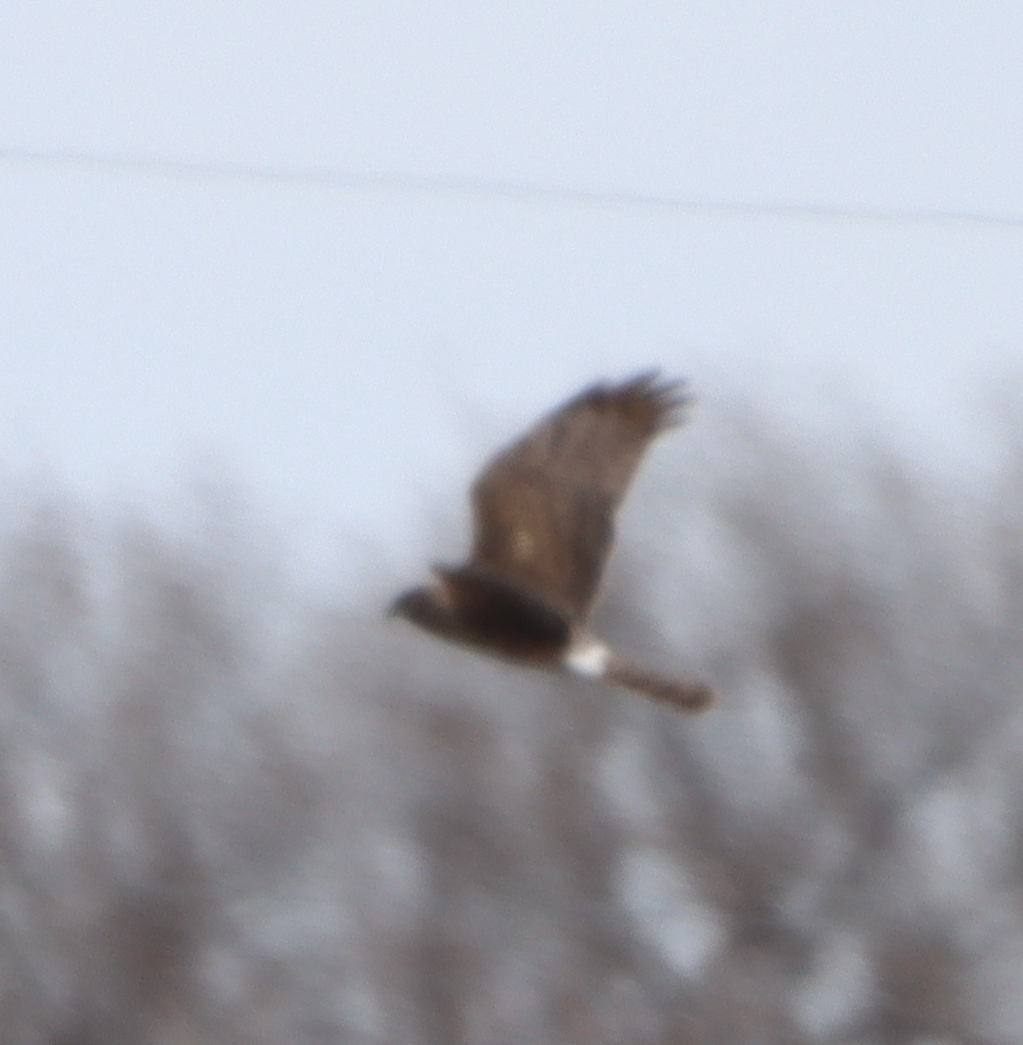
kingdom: Animalia
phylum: Chordata
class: Aves
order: Accipitriformes
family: Accipitridae
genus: Circus
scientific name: Circus cyaneus
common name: Hen harrier
